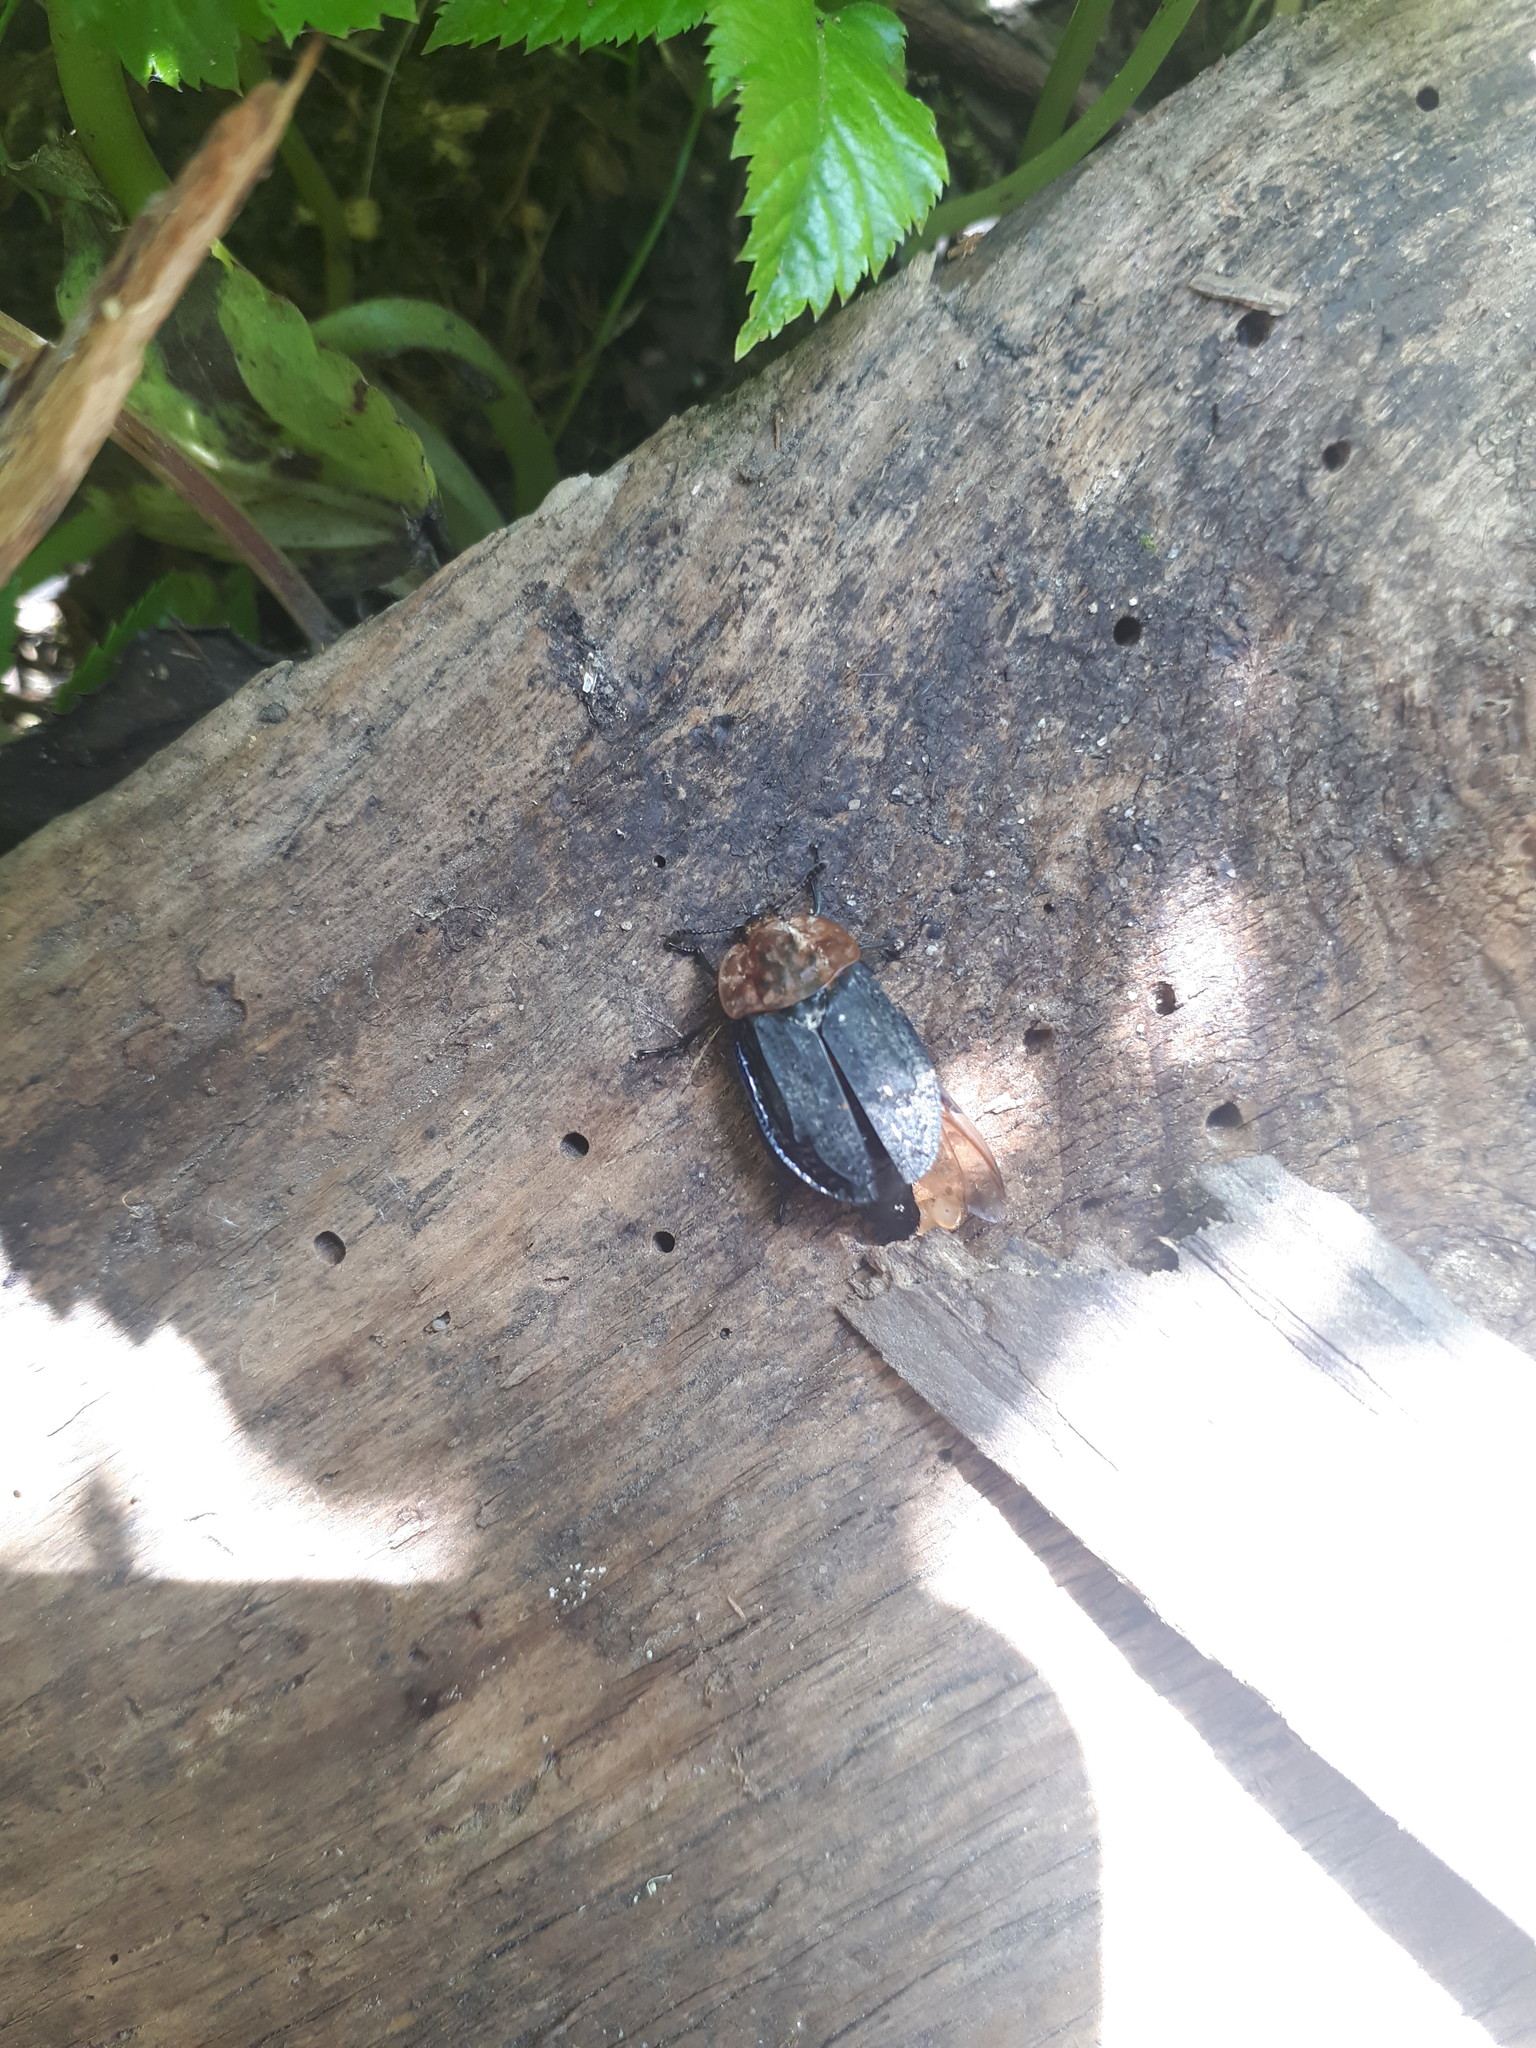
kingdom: Animalia
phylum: Arthropoda
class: Insecta
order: Coleoptera
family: Staphylinidae
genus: Oiceoptoma
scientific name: Oiceoptoma thoracicum
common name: Red-breasted carrion beetle
